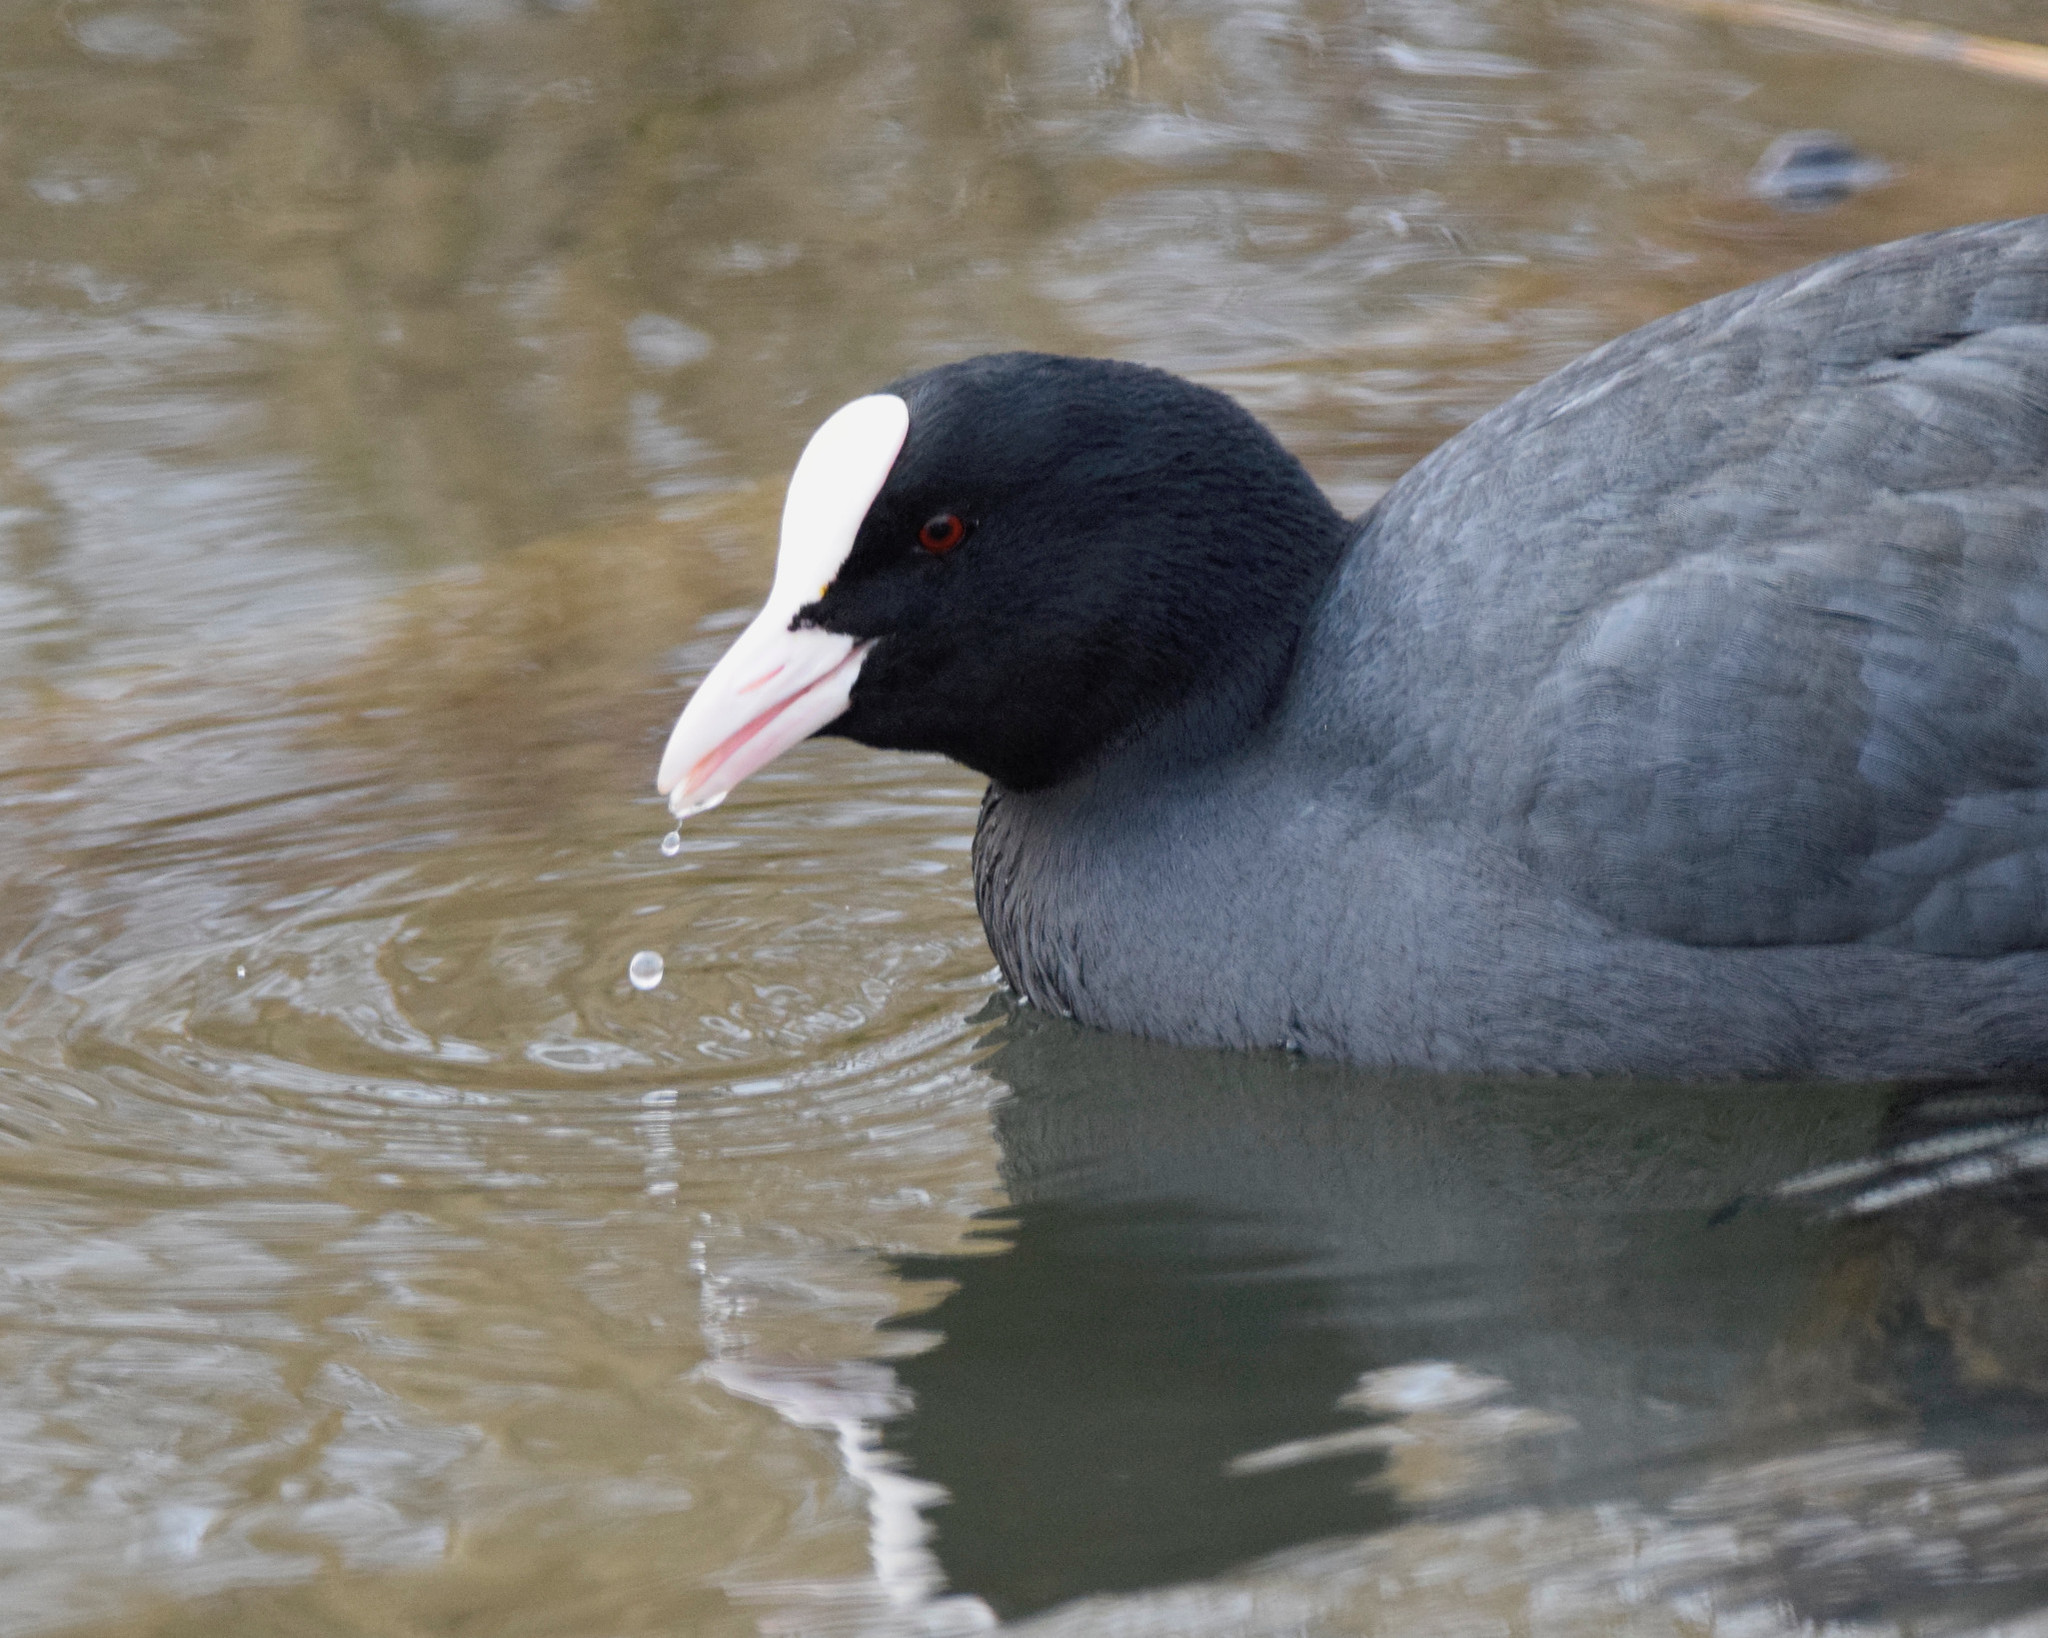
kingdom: Animalia
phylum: Chordata
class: Aves
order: Gruiformes
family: Rallidae
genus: Fulica
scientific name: Fulica atra
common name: Eurasian coot
